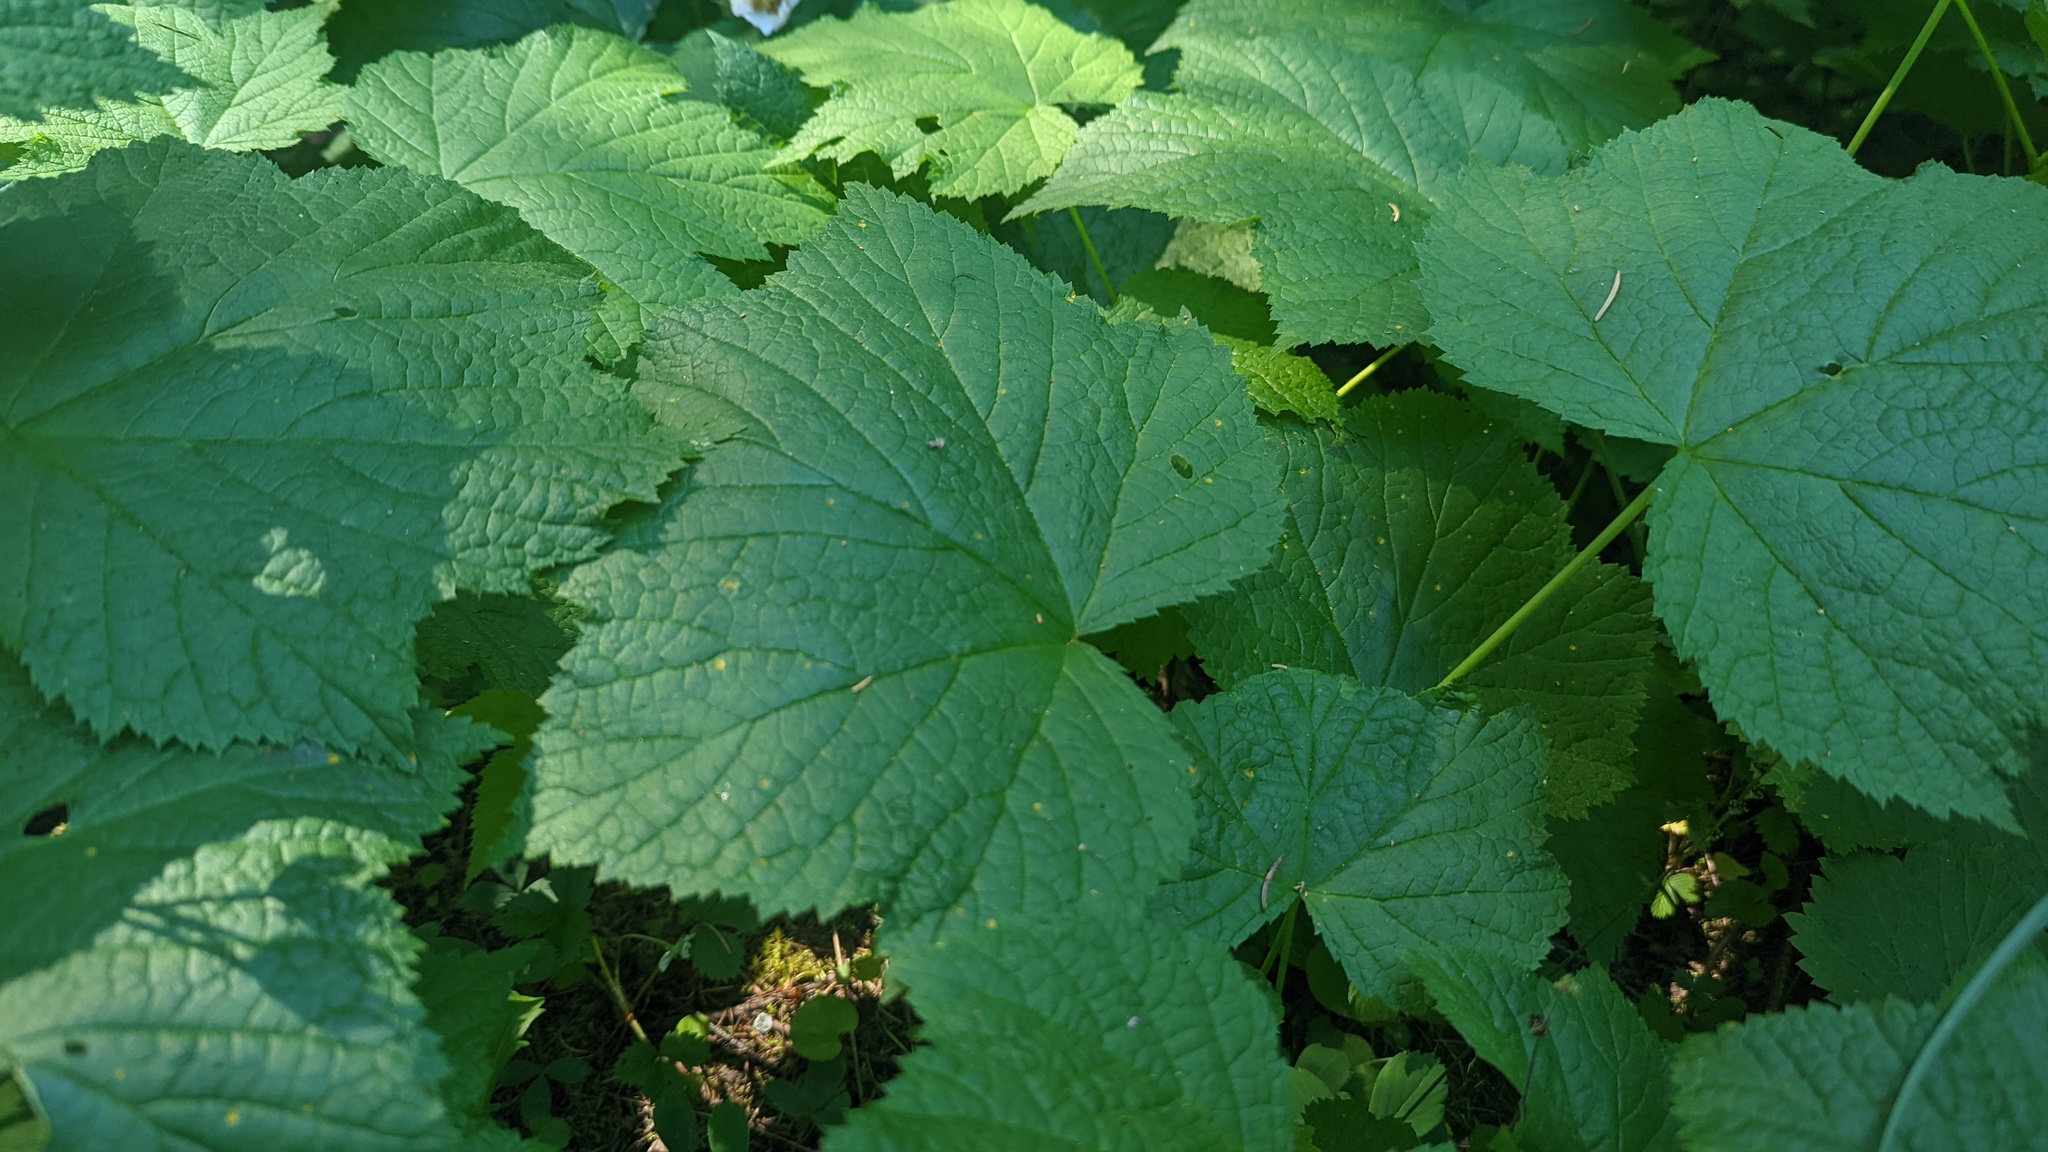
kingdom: Plantae
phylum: Tracheophyta
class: Magnoliopsida
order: Rosales
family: Rosaceae
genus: Rubus
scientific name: Rubus parviflorus
